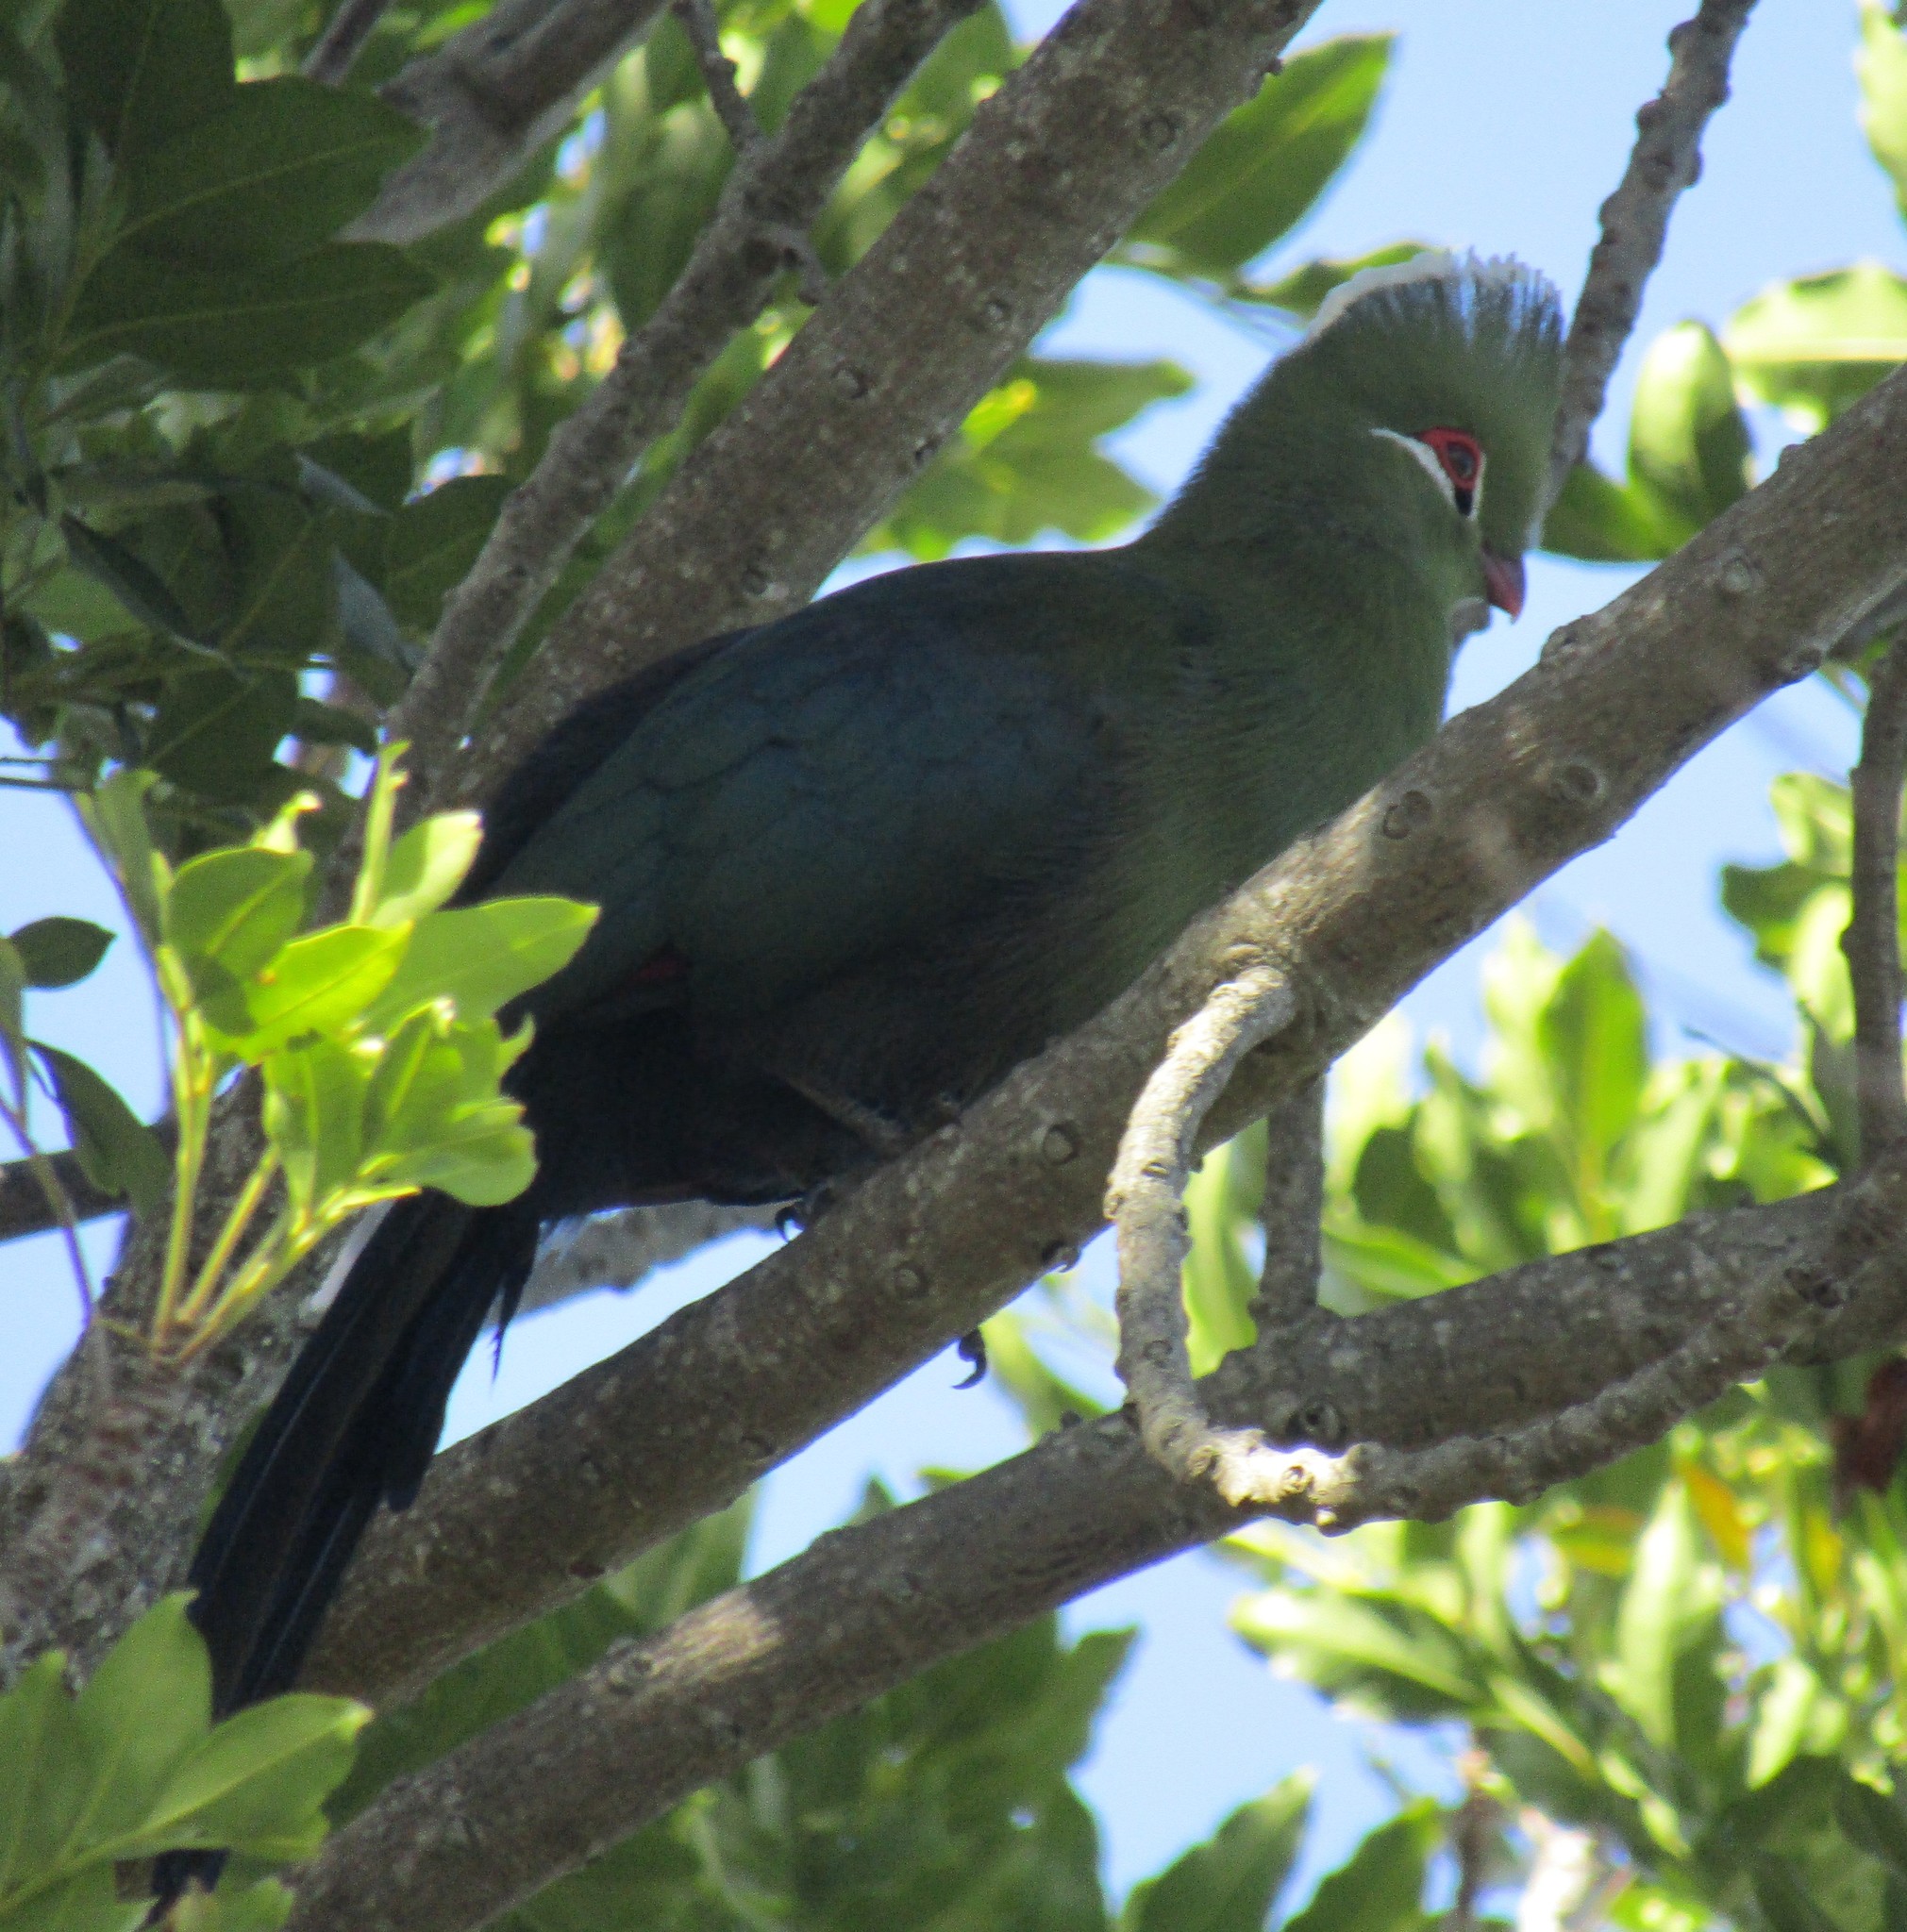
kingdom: Animalia
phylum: Chordata
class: Aves
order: Musophagiformes
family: Musophagidae
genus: Tauraco
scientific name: Tauraco corythaix
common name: Knysna turaco
